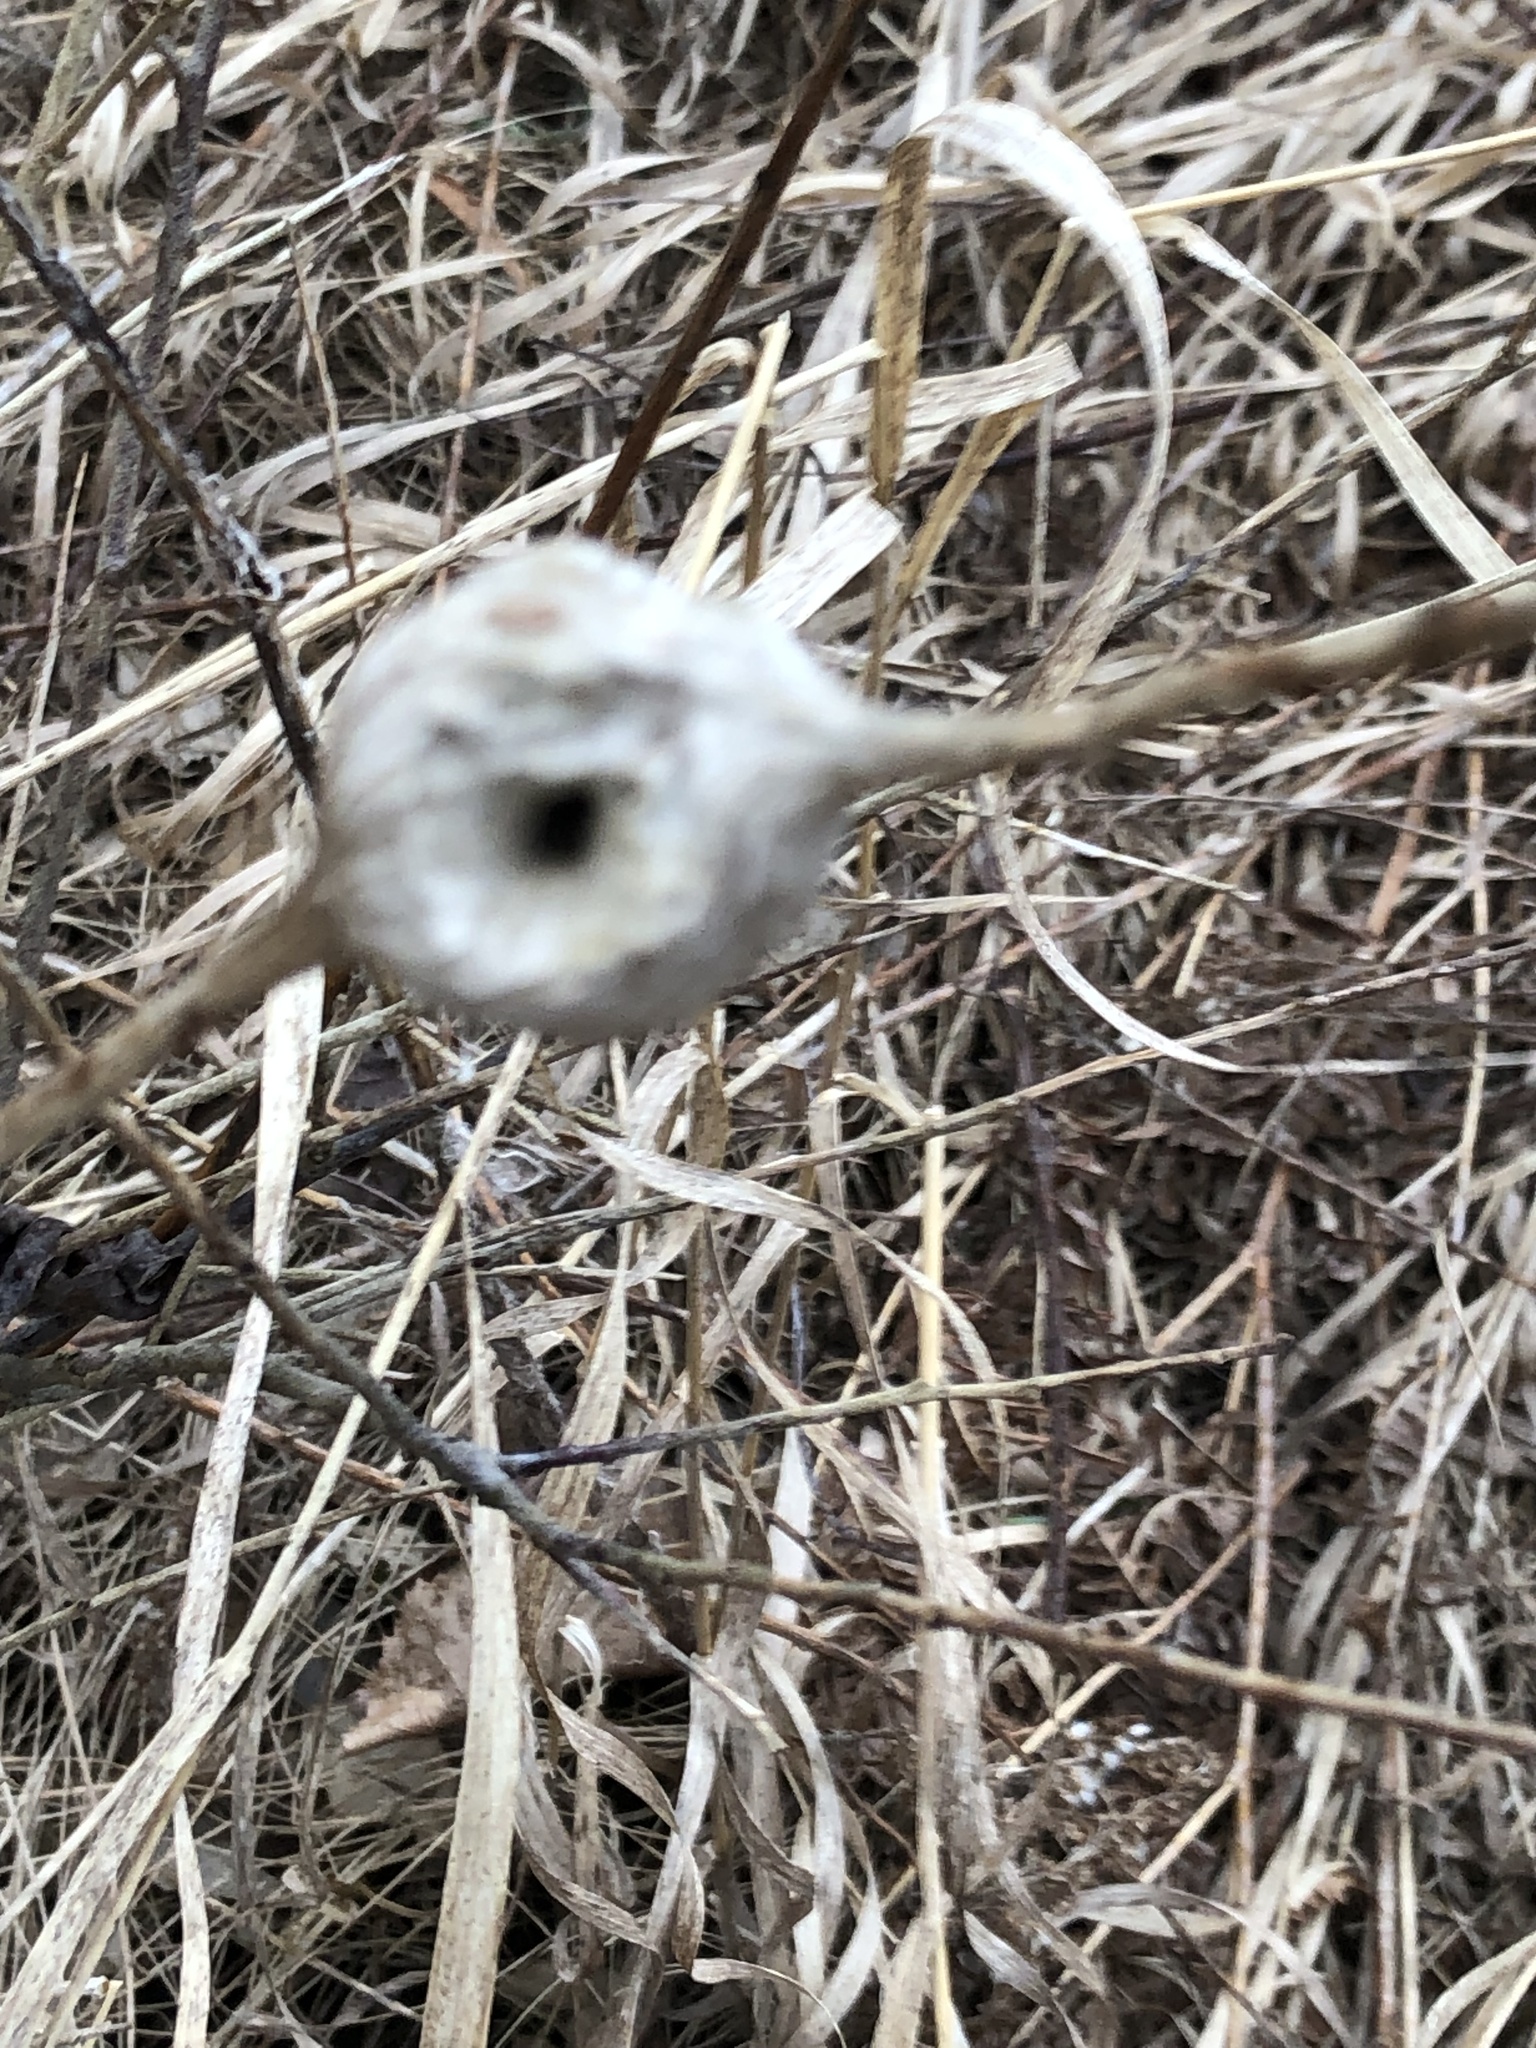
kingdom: Animalia
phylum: Arthropoda
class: Insecta
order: Diptera
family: Tephritidae
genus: Eurosta
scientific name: Eurosta solidaginis
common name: Goldenrod gall fly
